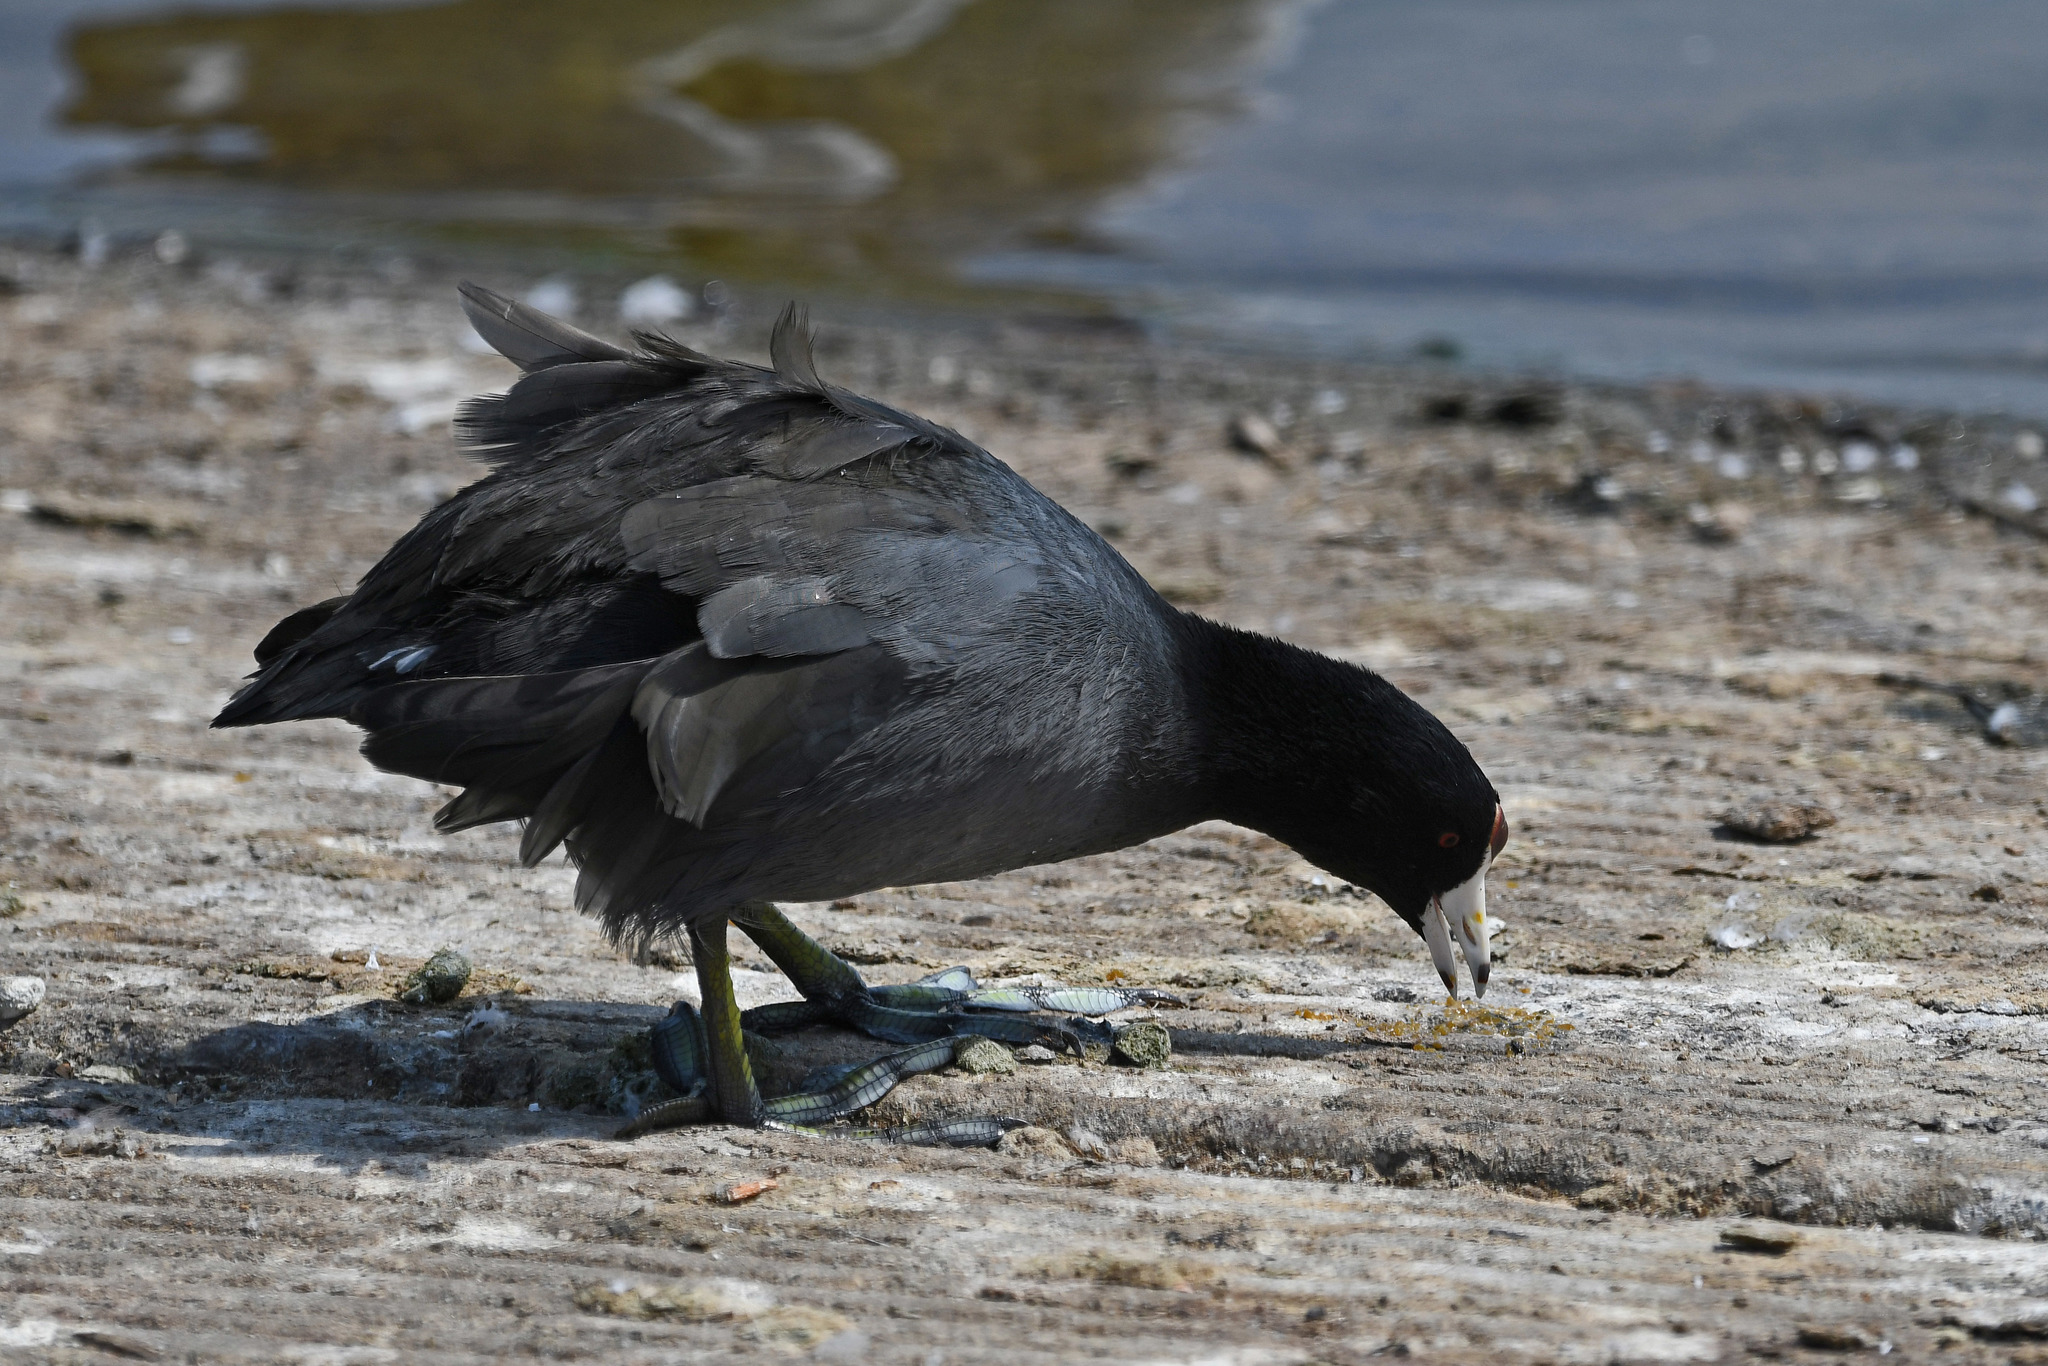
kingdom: Animalia
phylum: Chordata
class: Aves
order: Gruiformes
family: Rallidae
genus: Fulica
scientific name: Fulica americana
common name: American coot
